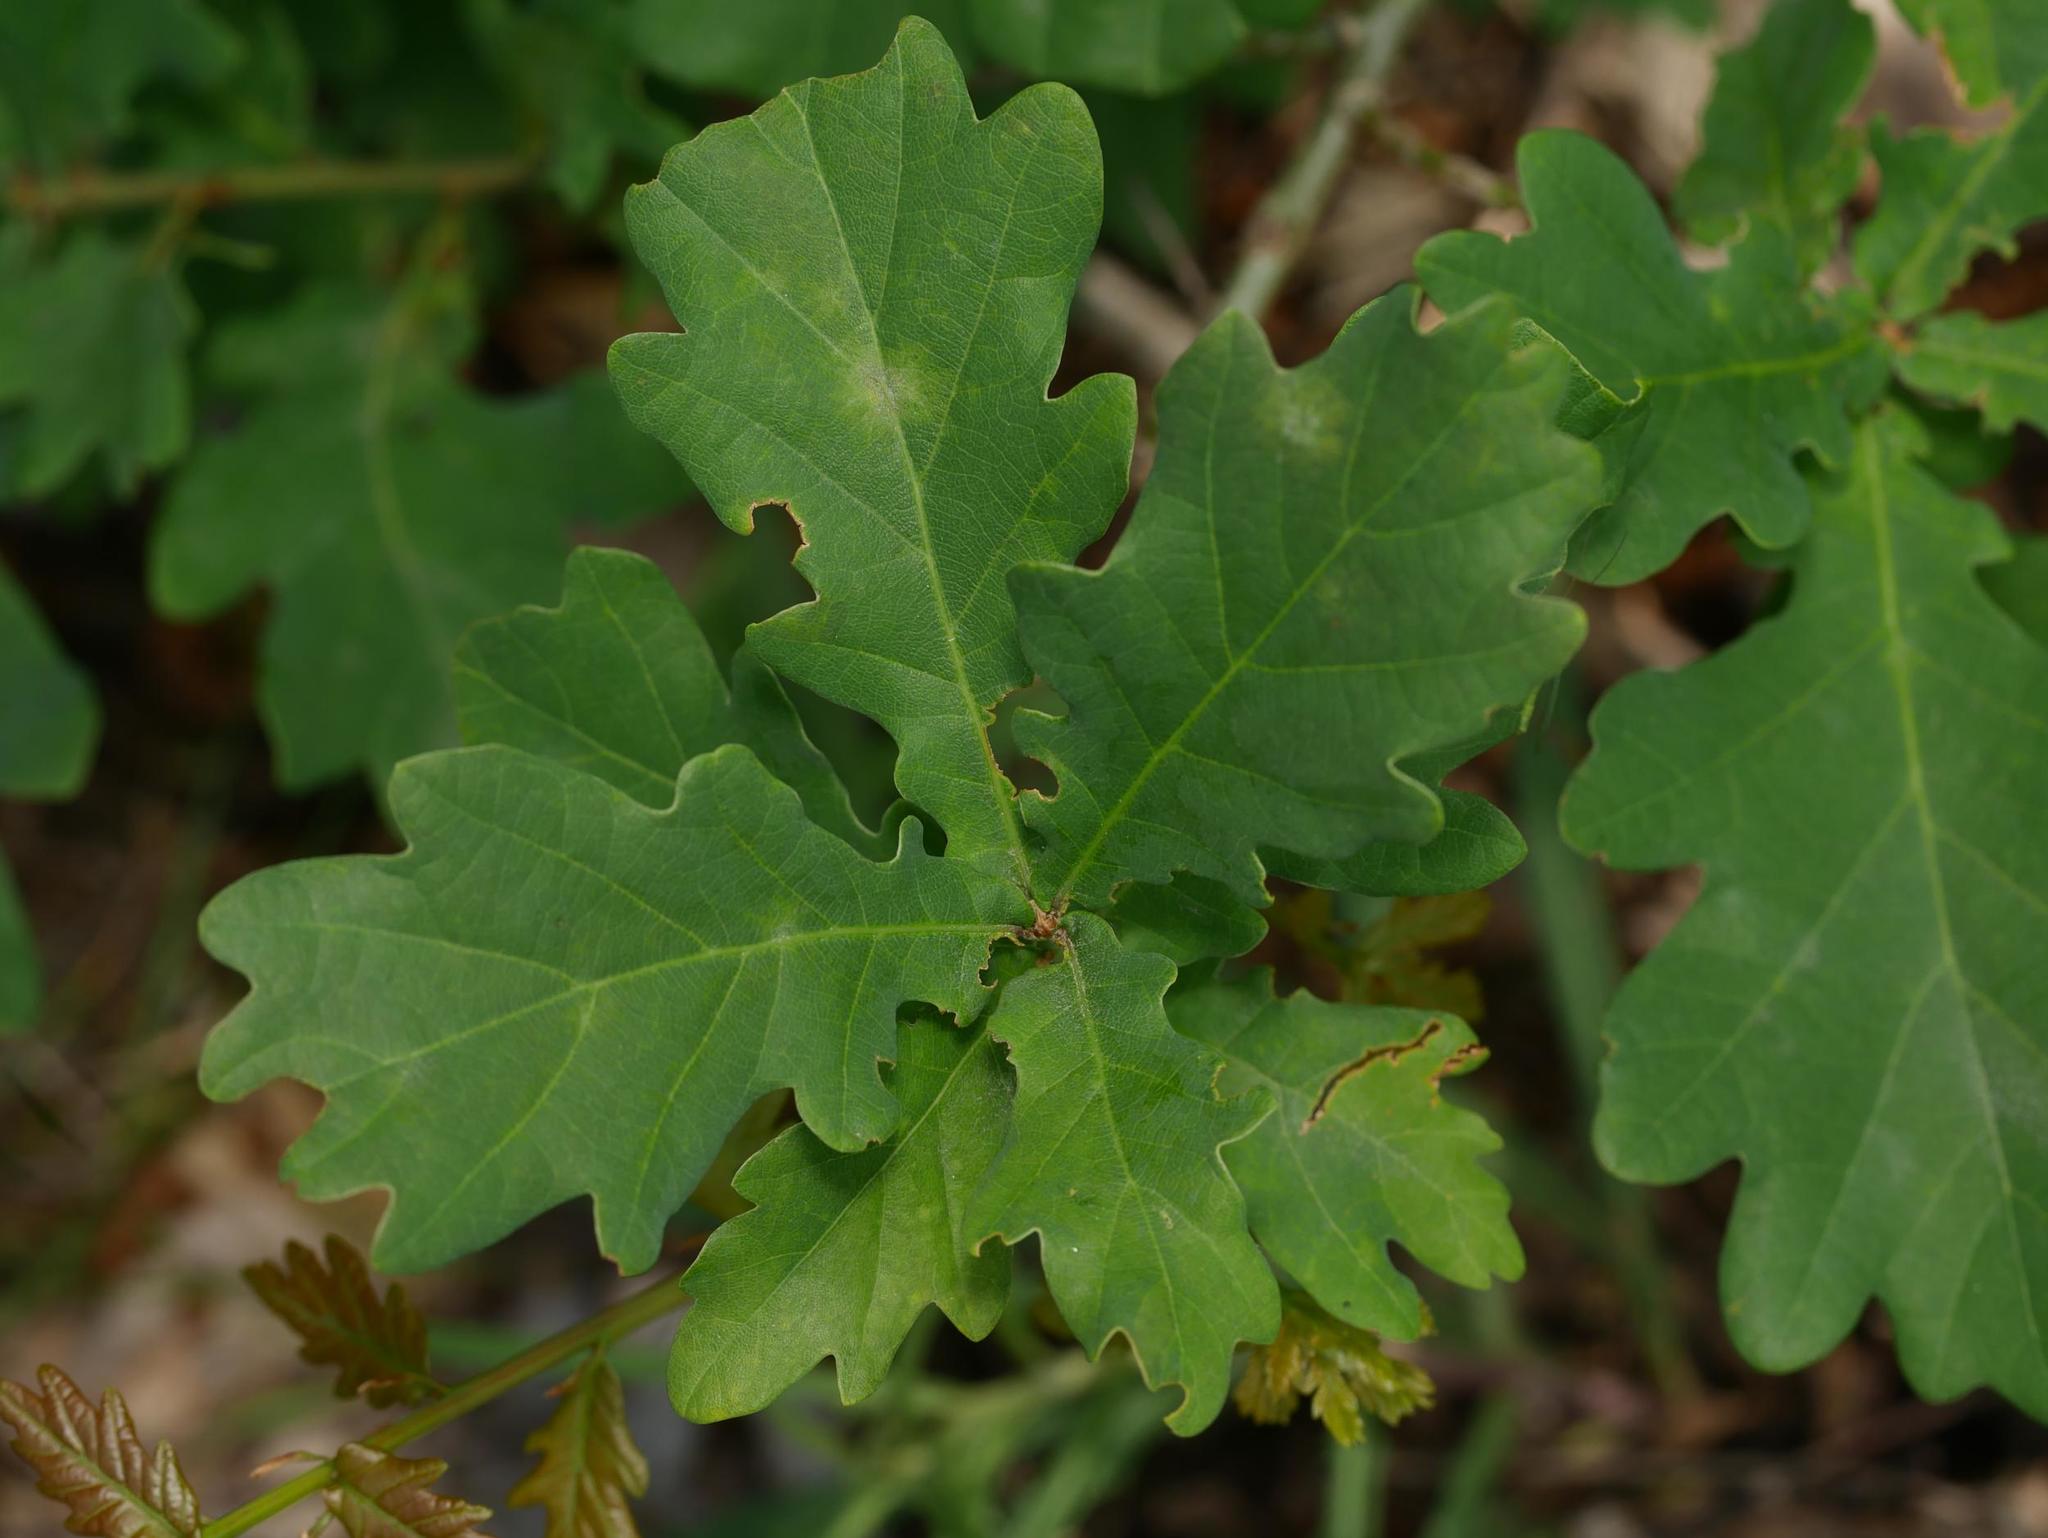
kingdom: Plantae
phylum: Tracheophyta
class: Magnoliopsida
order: Fagales
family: Fagaceae
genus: Quercus
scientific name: Quercus robur
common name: Pedunculate oak
